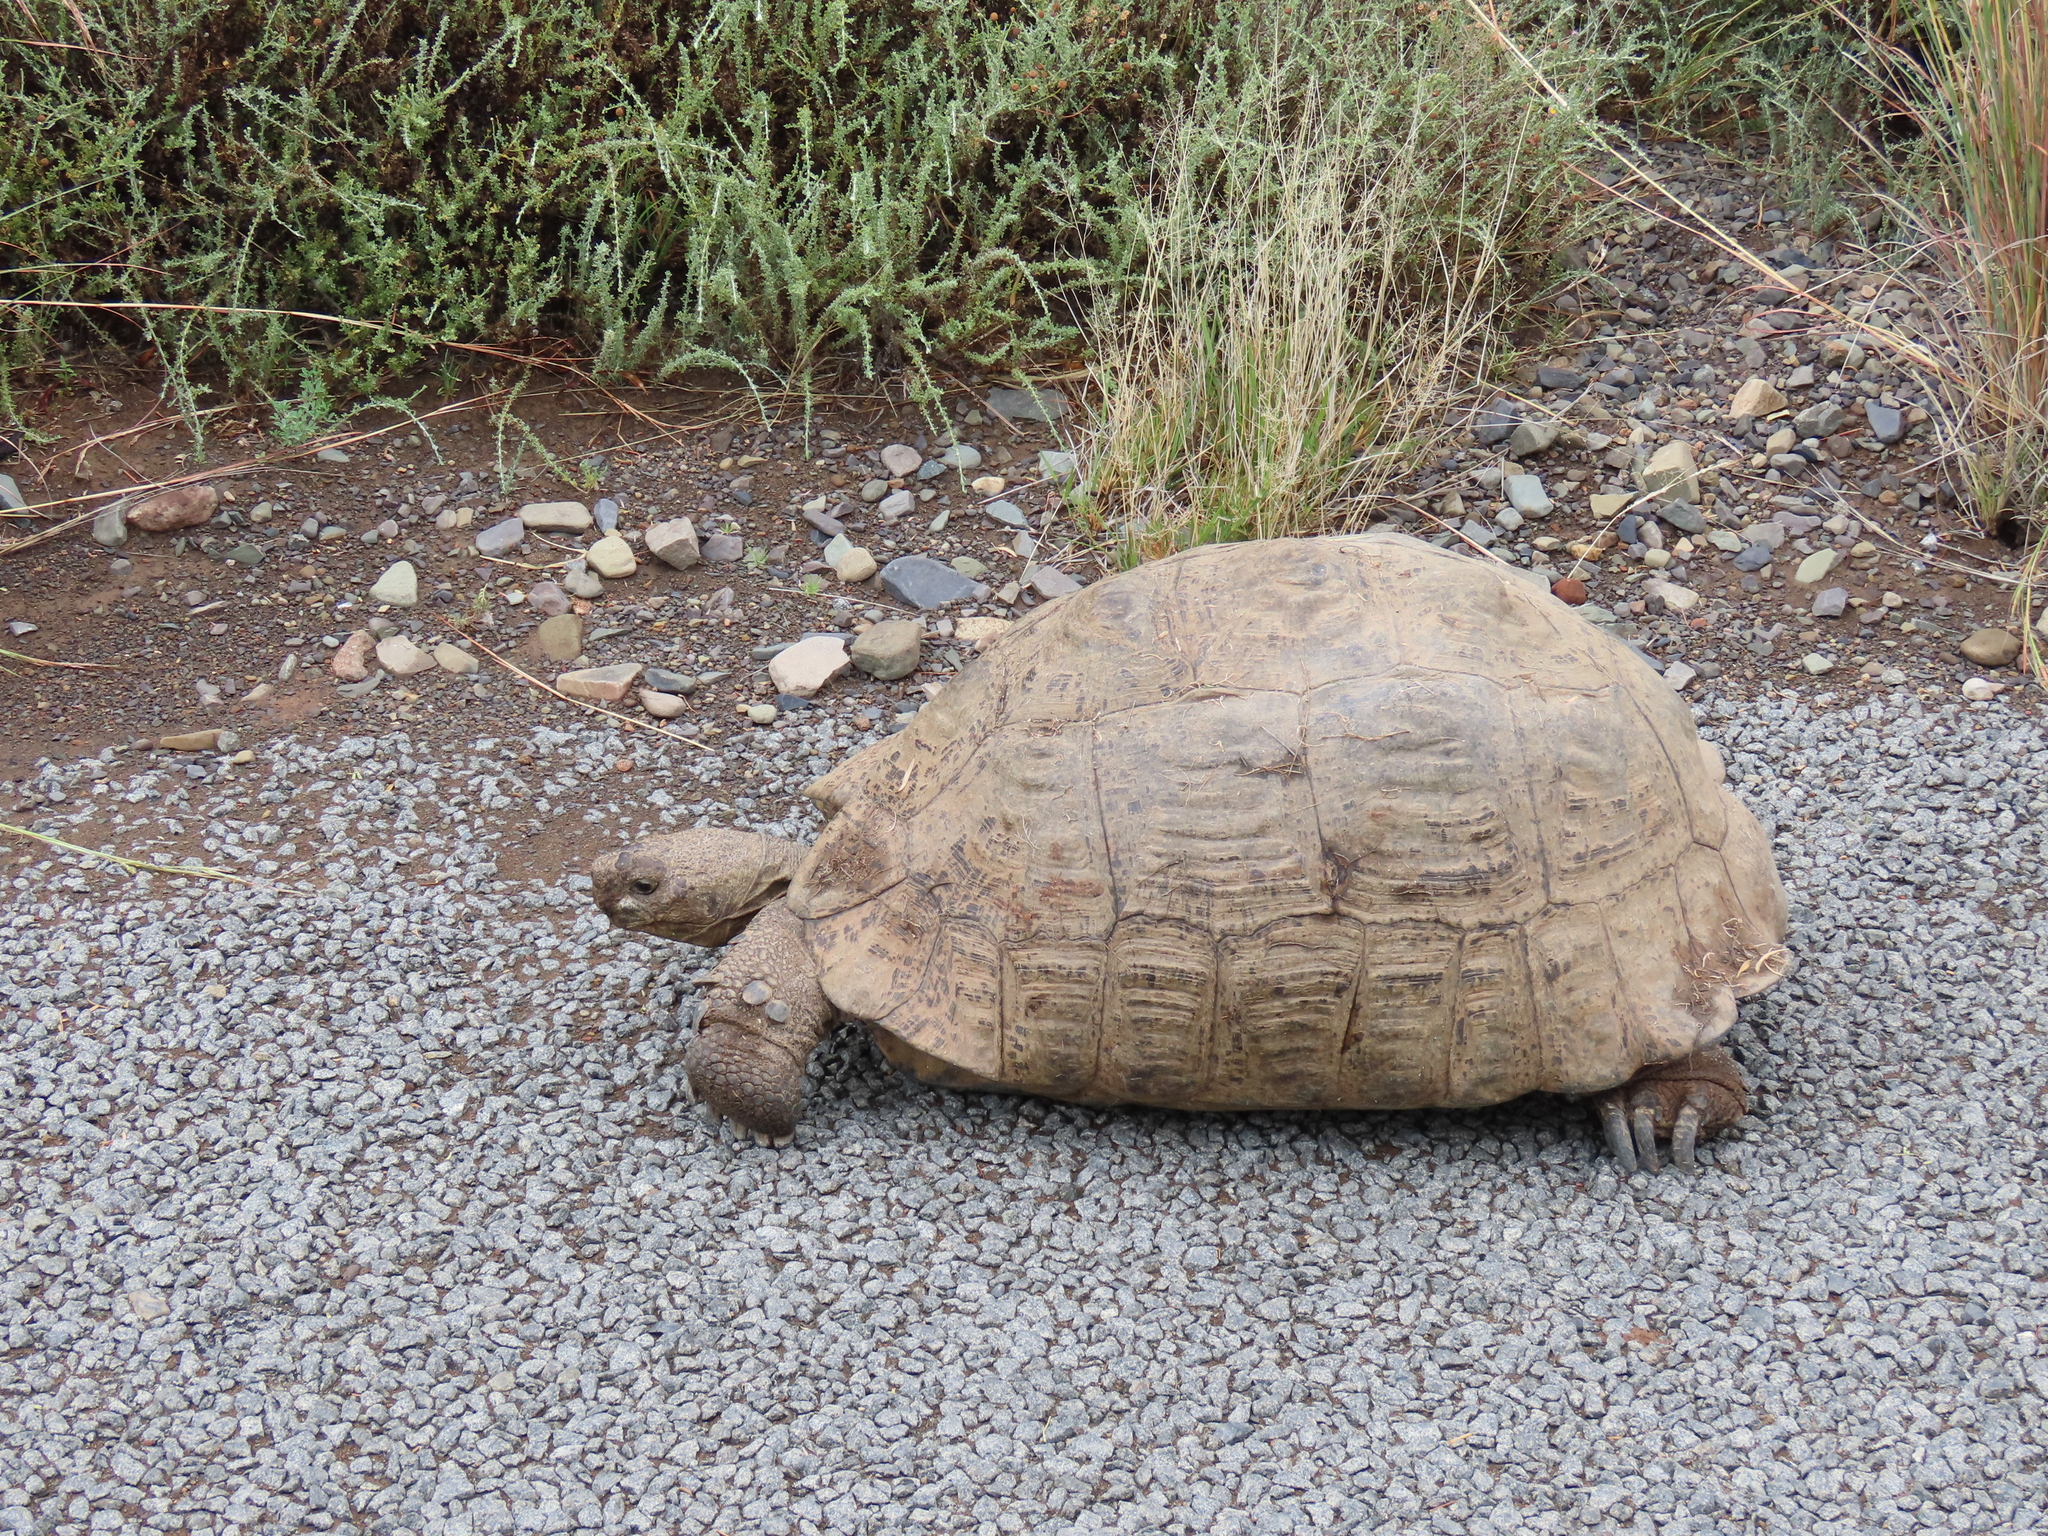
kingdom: Animalia
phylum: Chordata
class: Testudines
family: Testudinidae
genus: Stigmochelys
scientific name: Stigmochelys pardalis
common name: Leopard tortoise
